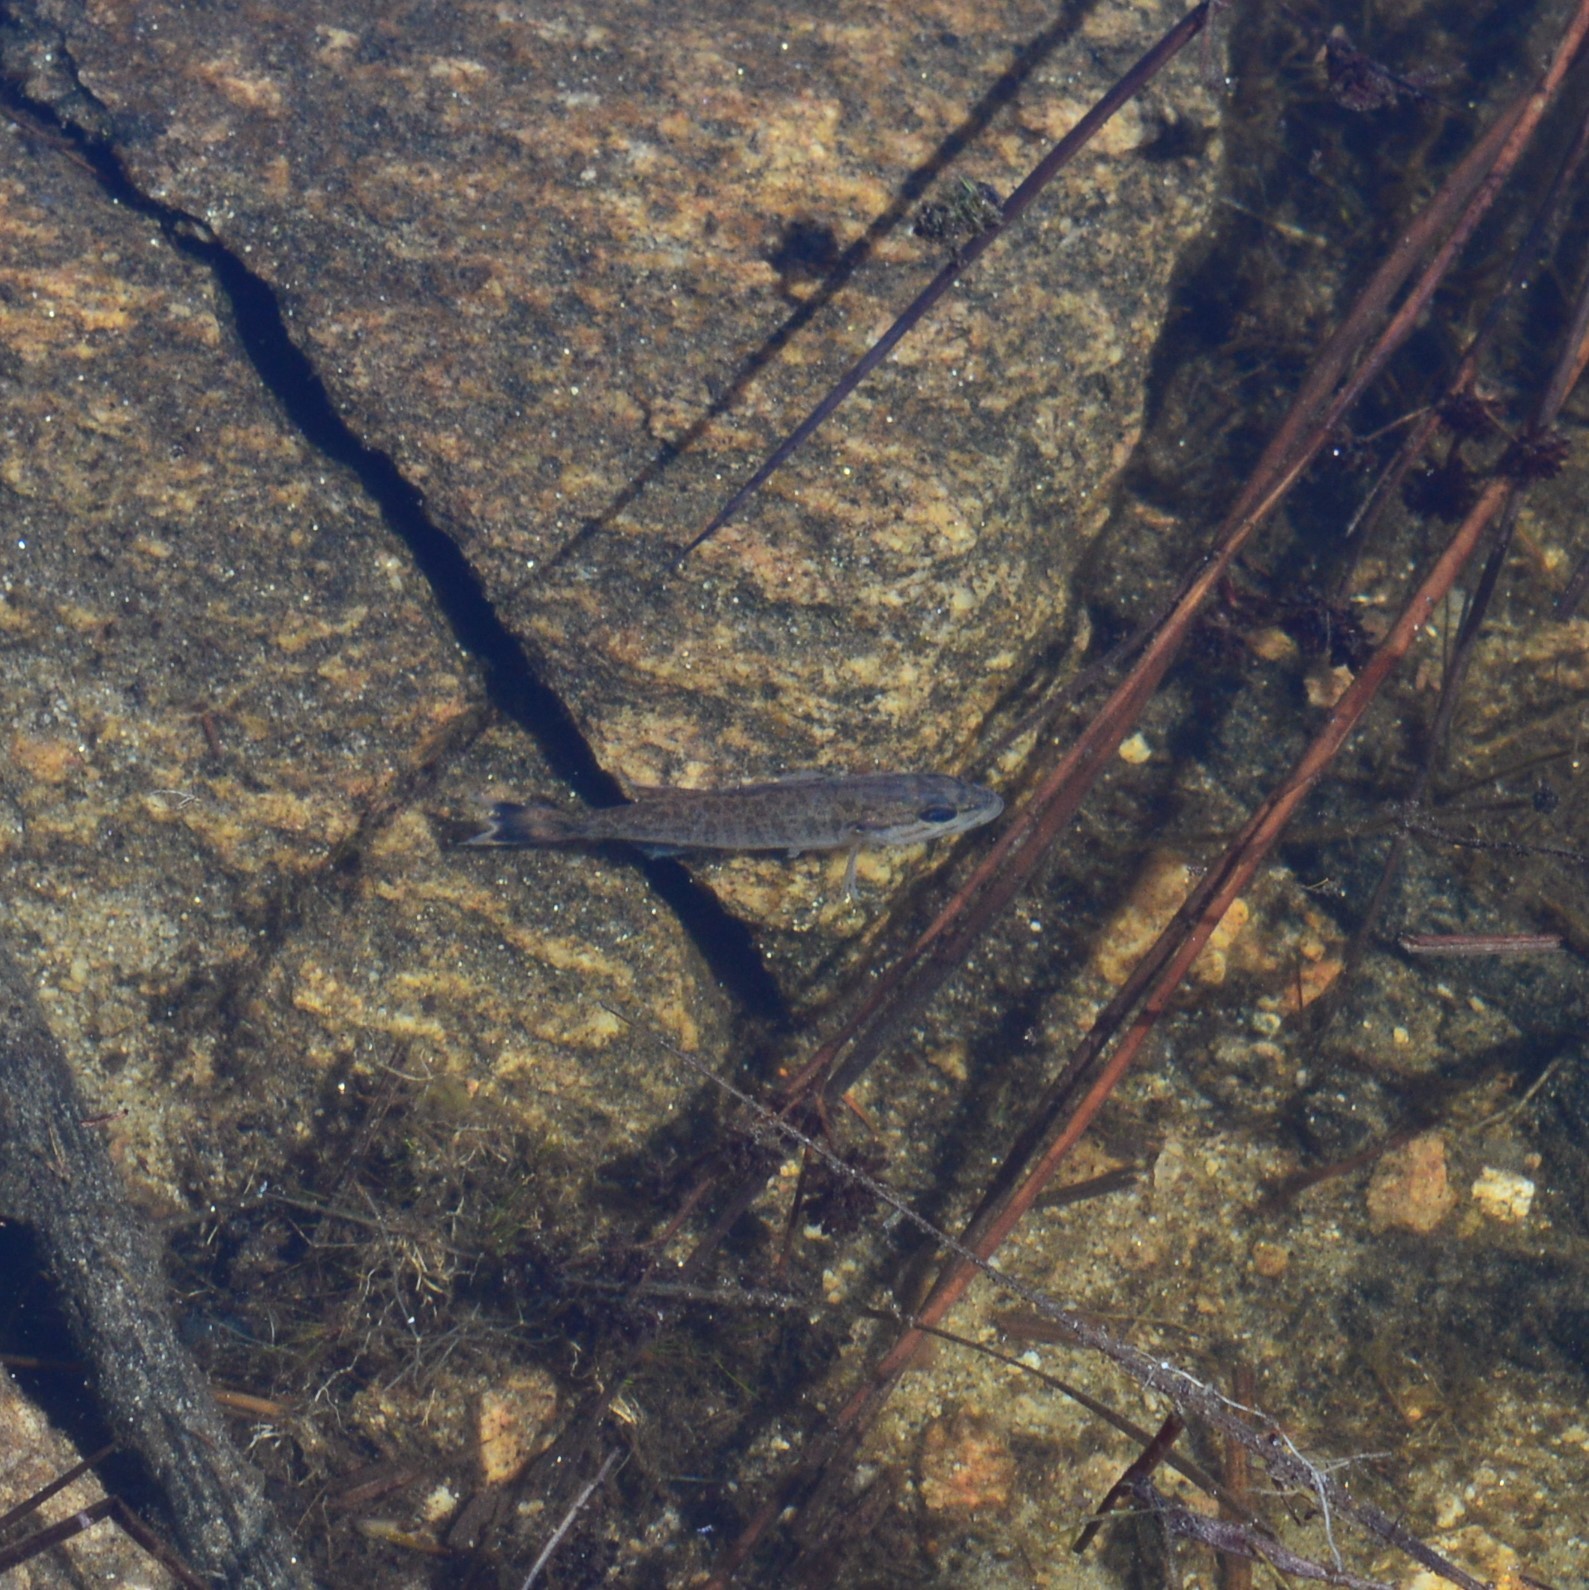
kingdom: Animalia
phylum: Chordata
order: Perciformes
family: Centrarchidae
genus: Micropterus
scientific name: Micropterus dolomieu
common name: Smallmouth bass
